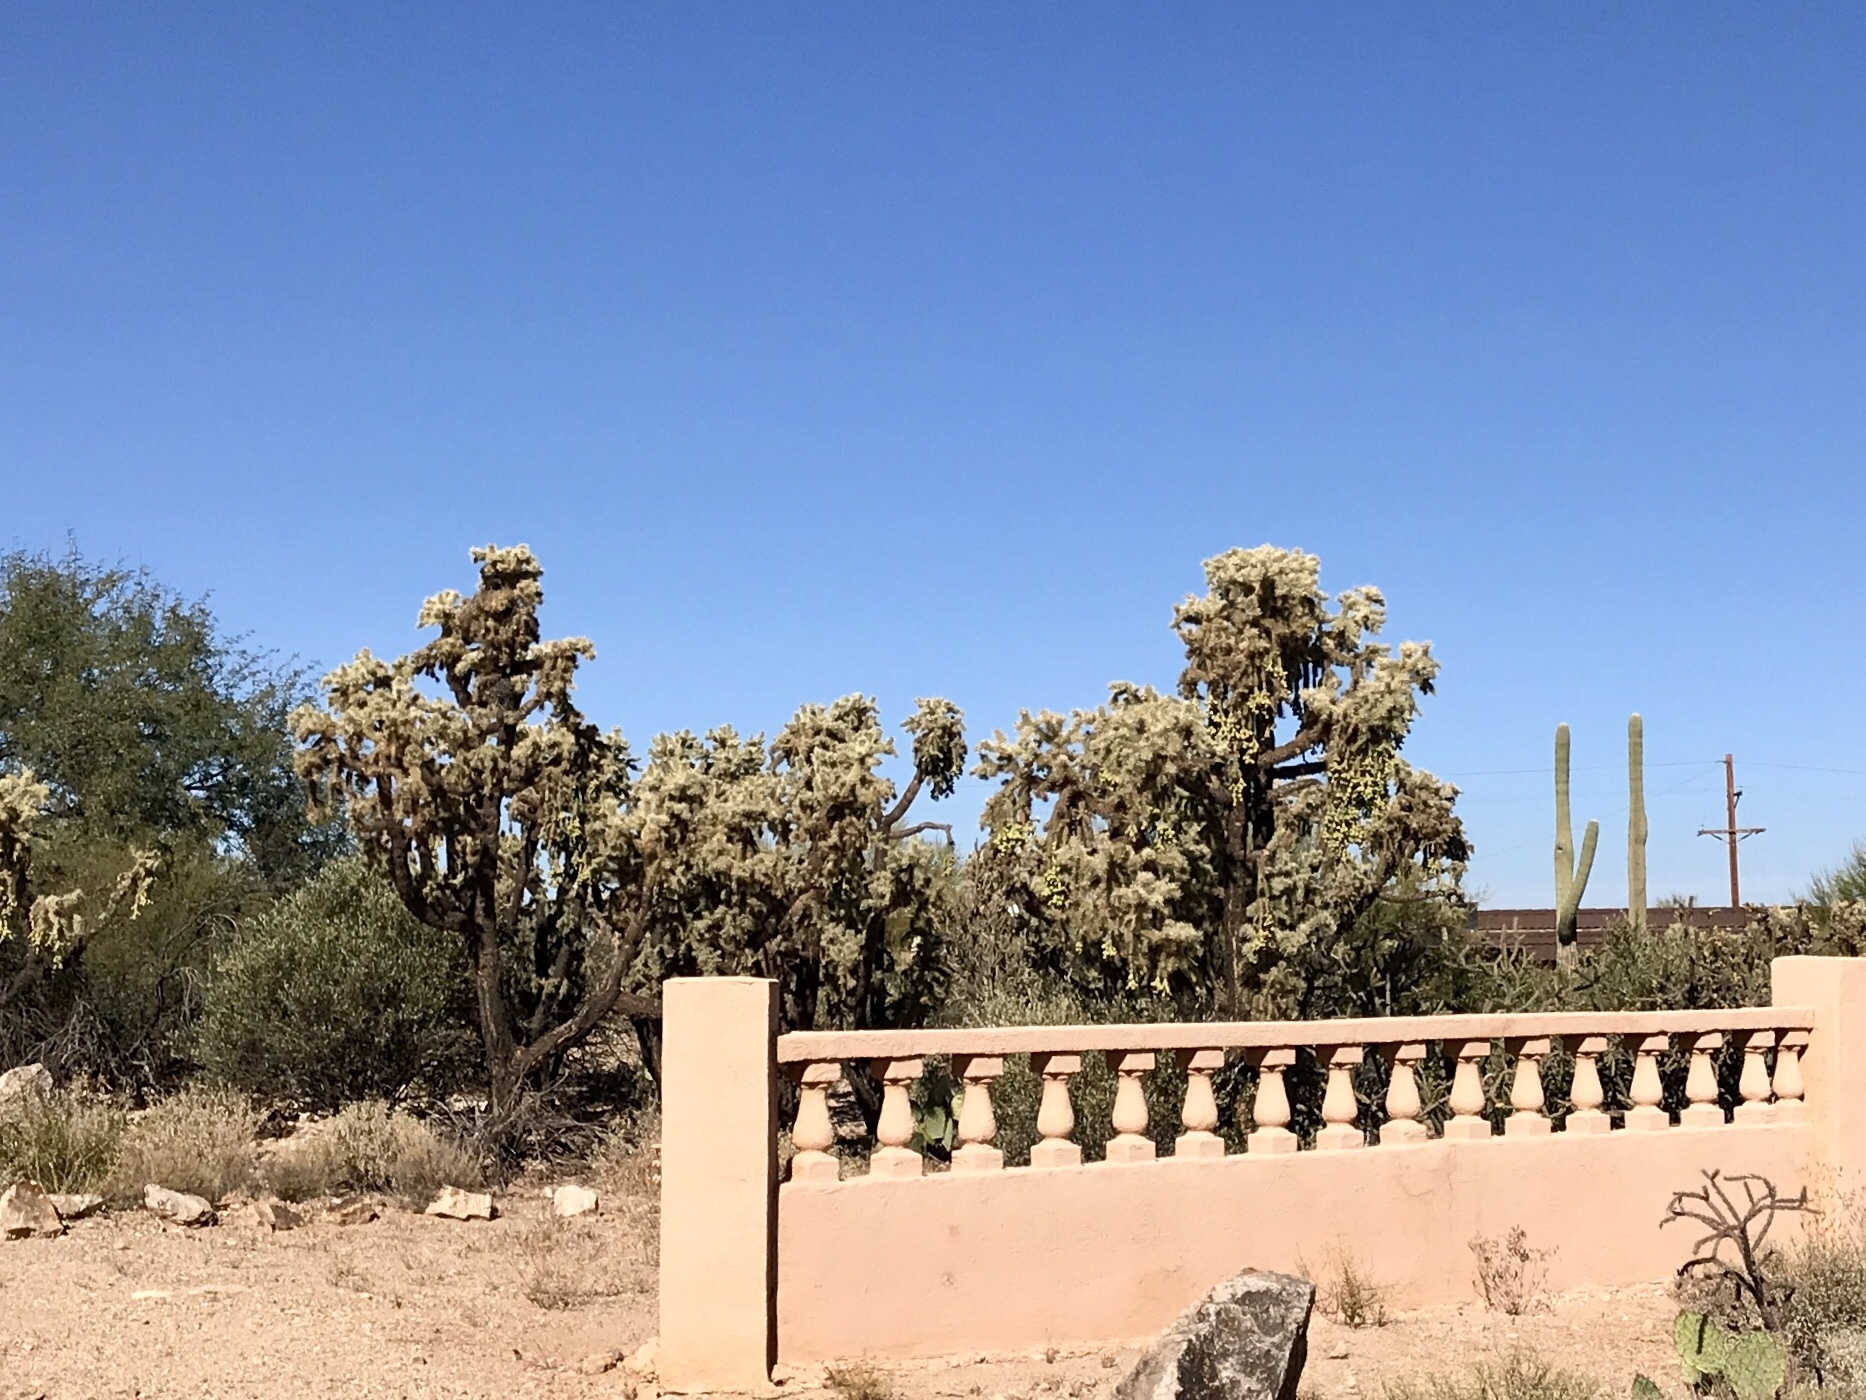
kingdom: Plantae
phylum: Tracheophyta
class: Magnoliopsida
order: Caryophyllales
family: Cactaceae
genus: Cylindropuntia
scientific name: Cylindropuntia fulgida
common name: Jumping cholla
